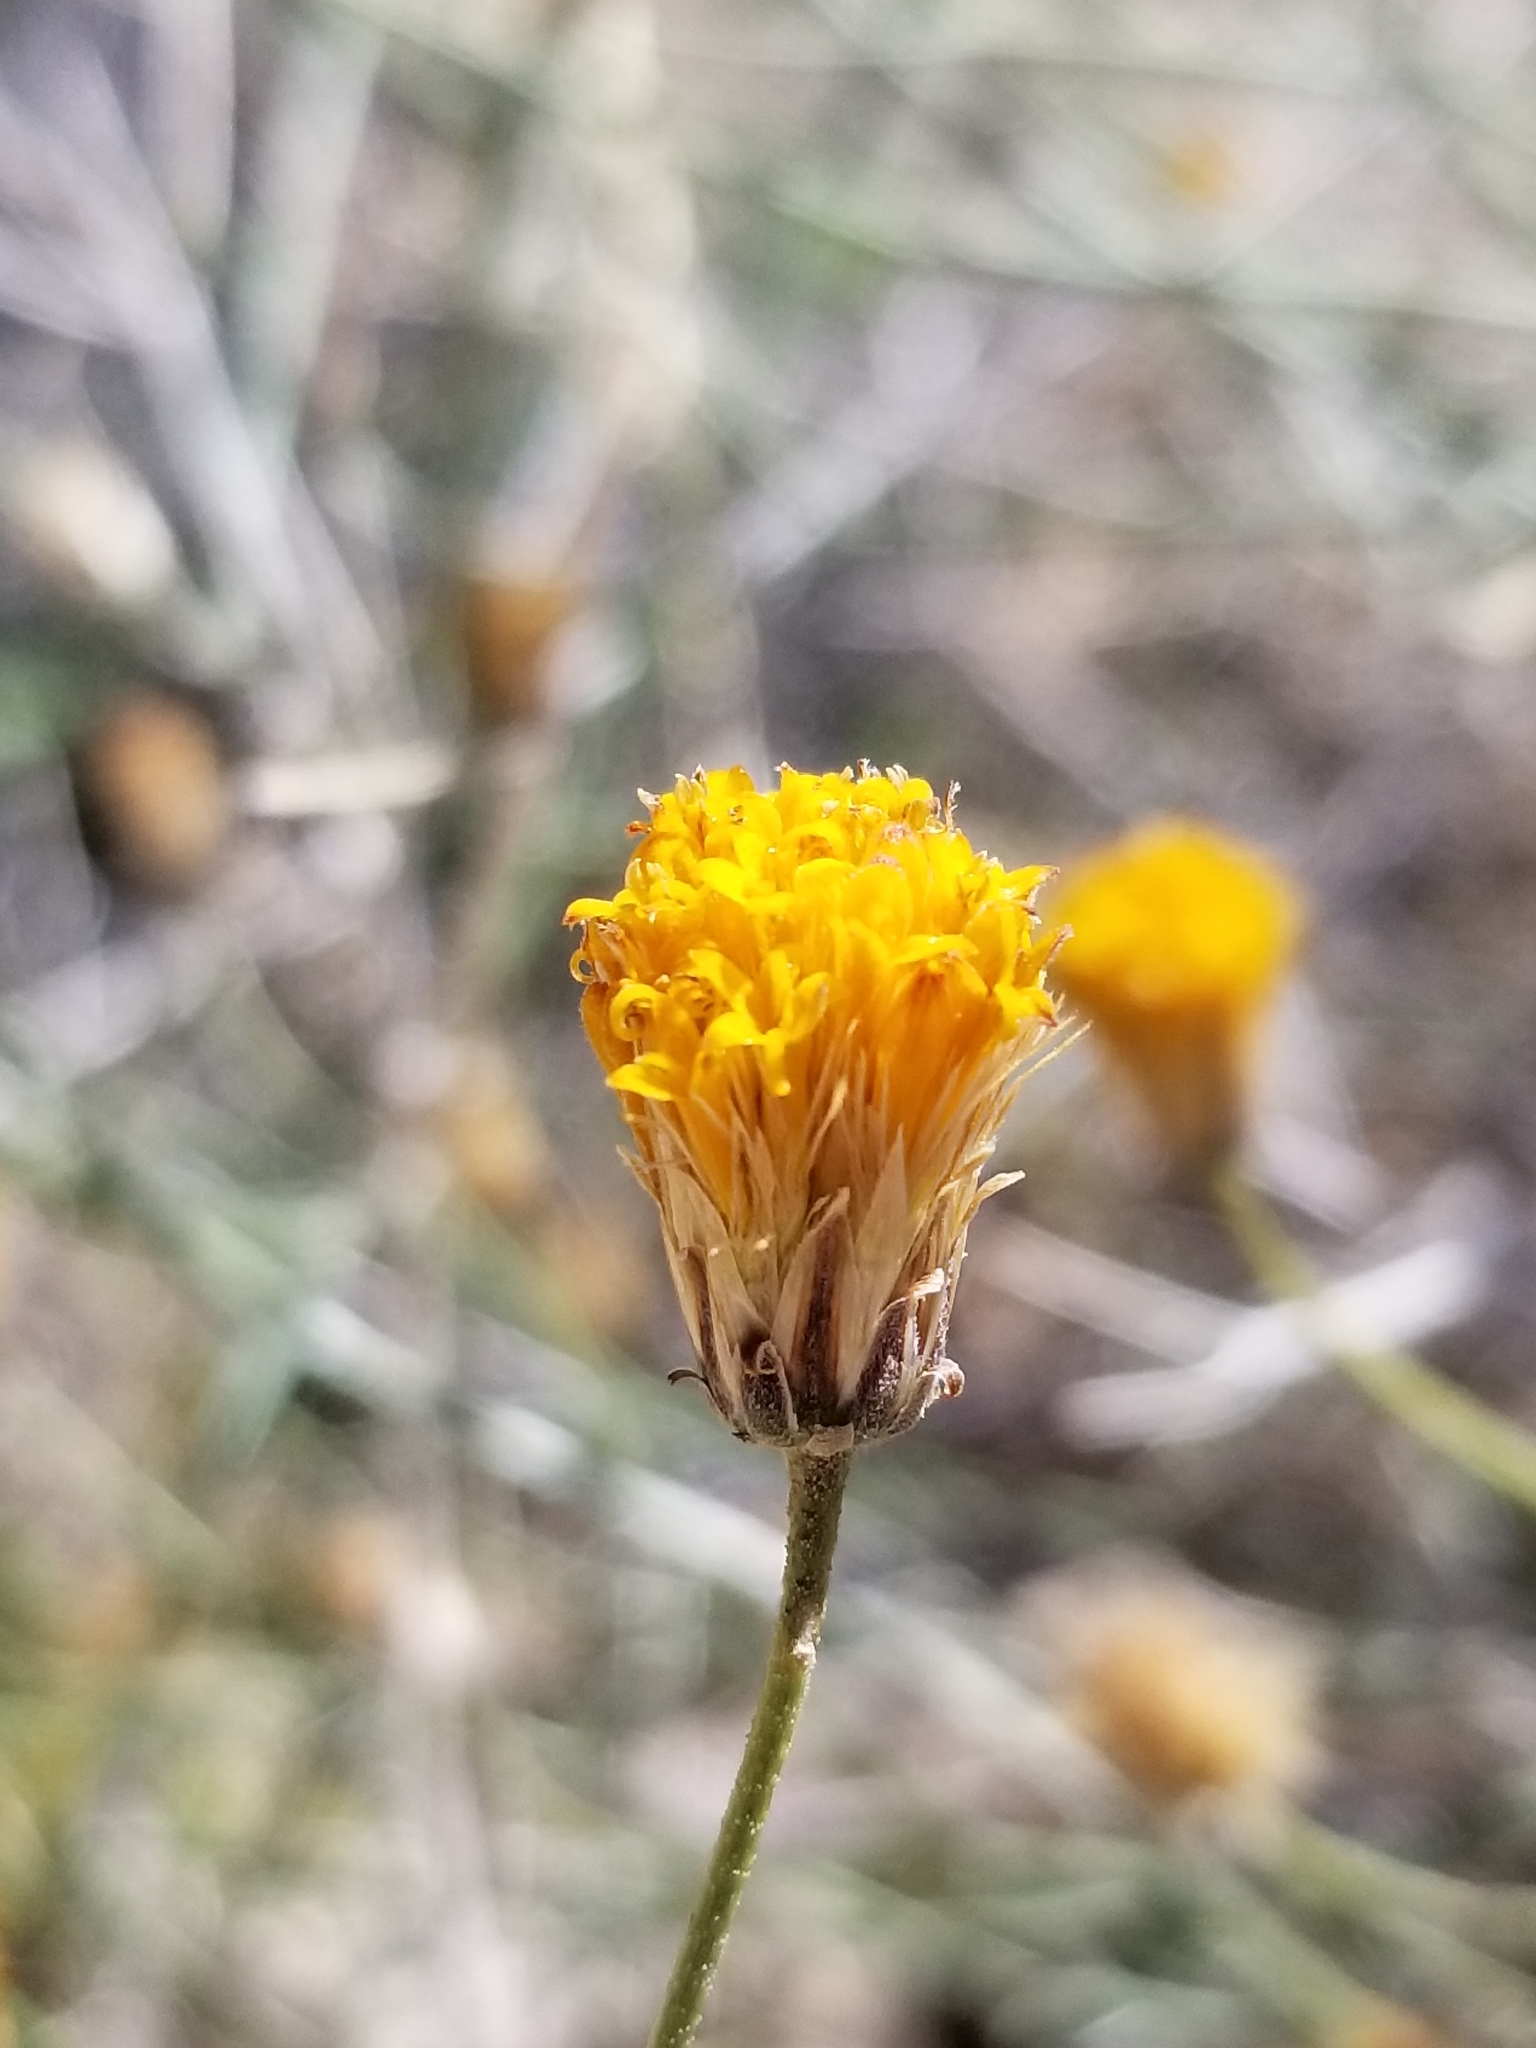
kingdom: Plantae
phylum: Tracheophyta
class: Magnoliopsida
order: Asterales
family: Asteraceae
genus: Bebbia
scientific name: Bebbia juncea
